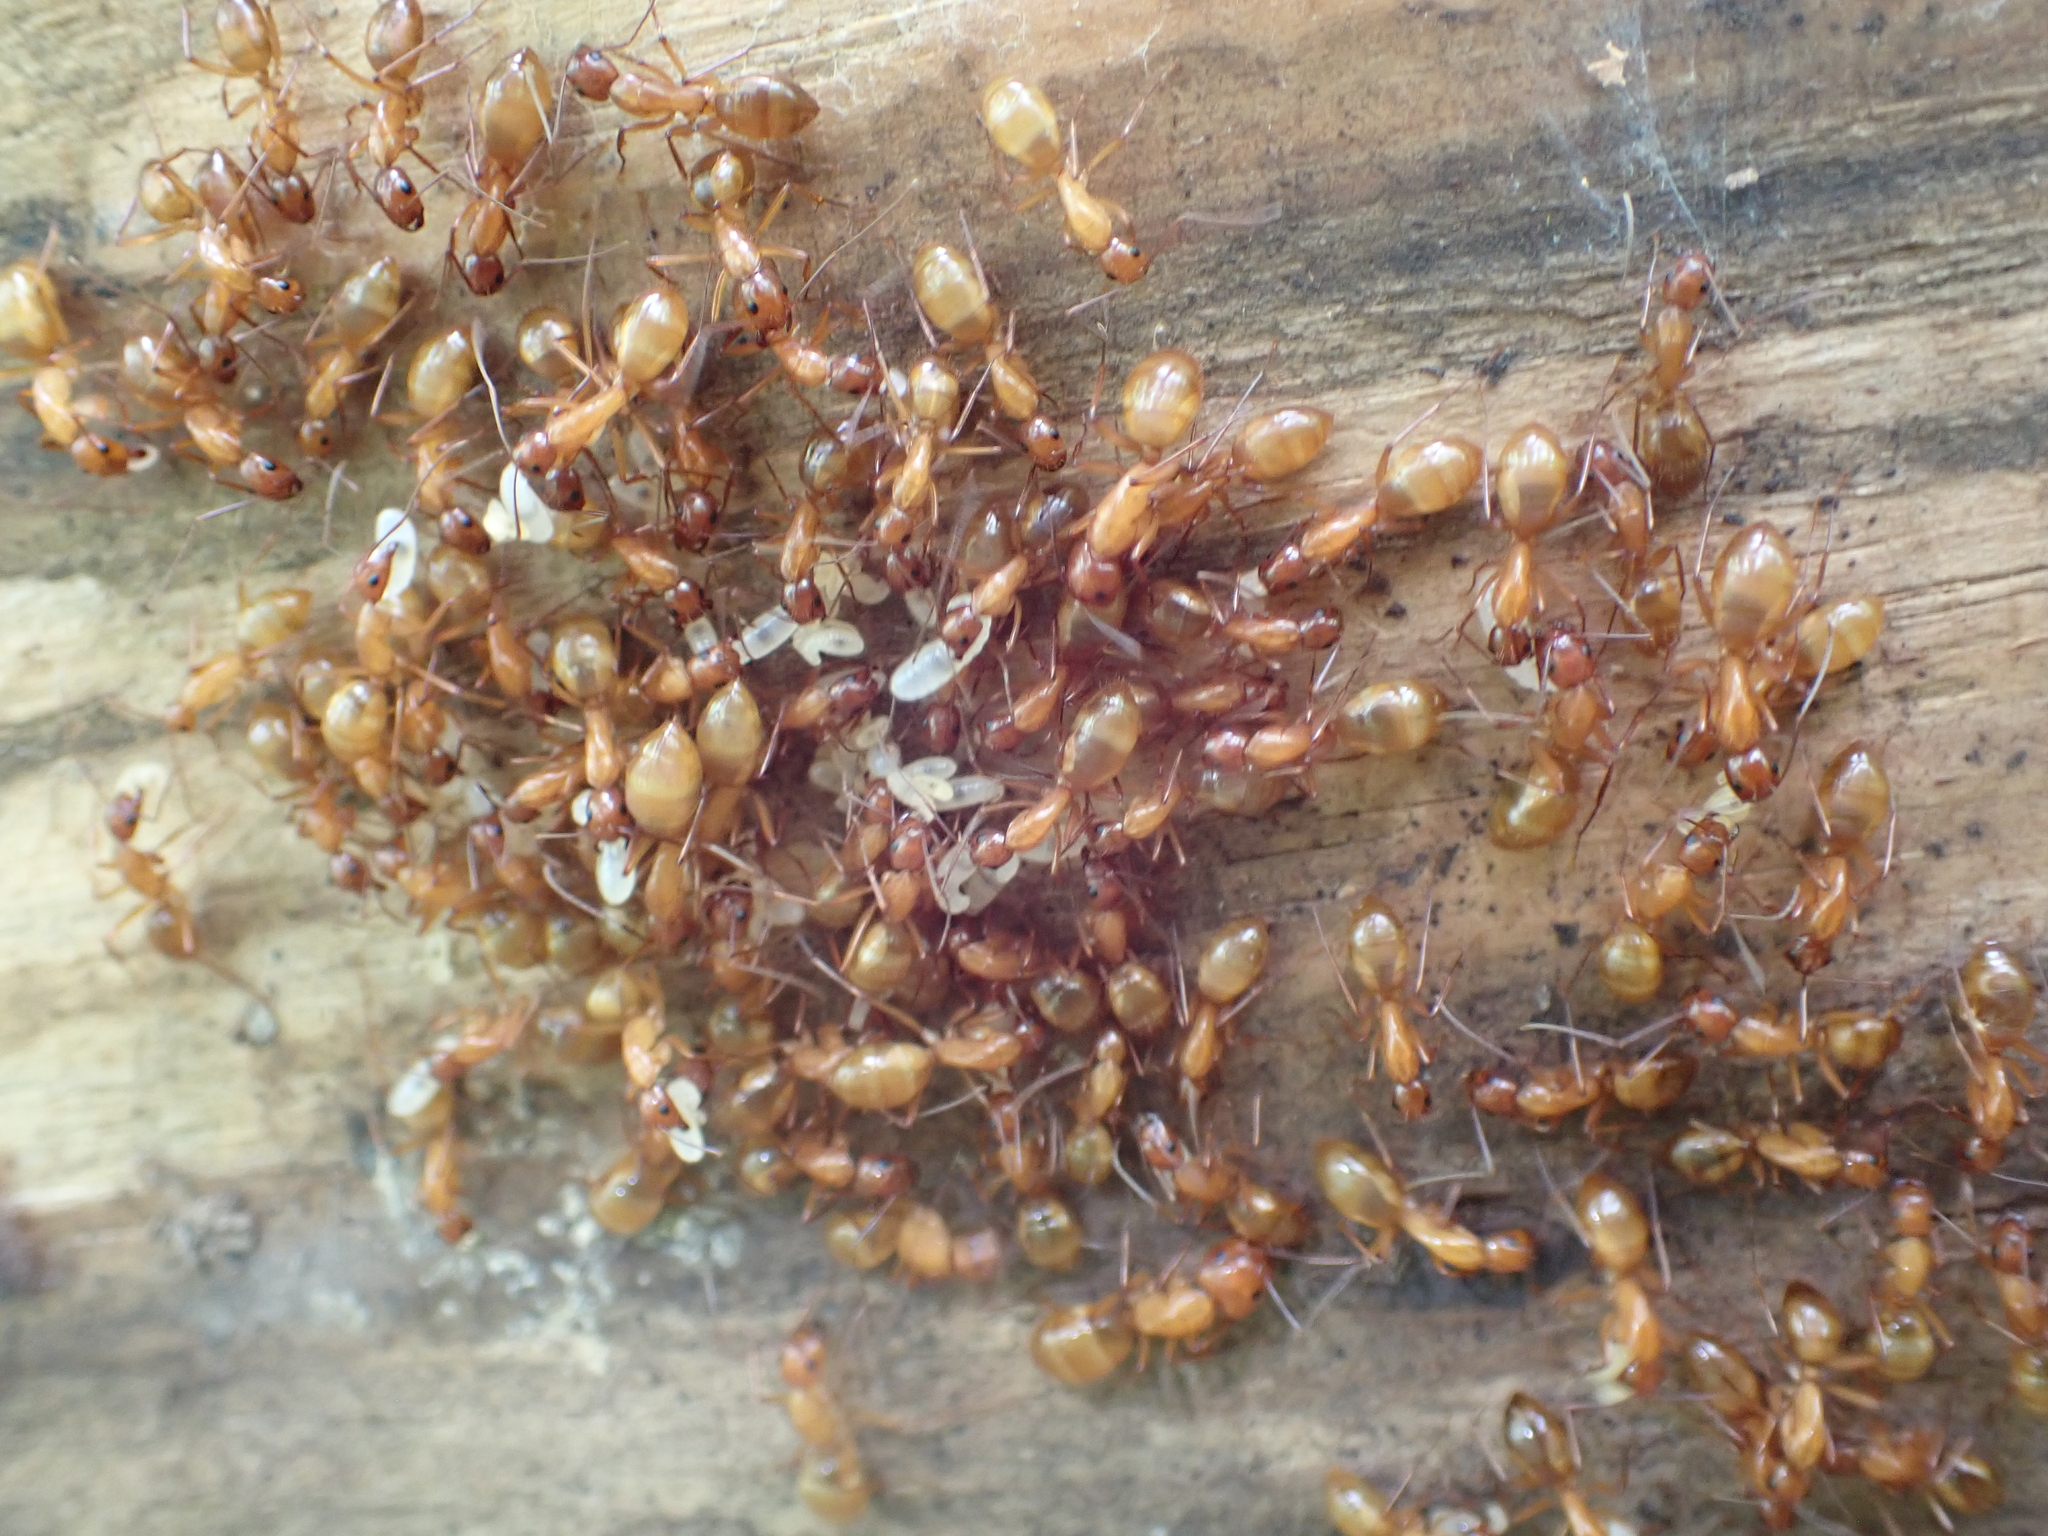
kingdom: Animalia
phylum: Arthropoda
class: Insecta
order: Hymenoptera
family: Formicidae
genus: Camponotus
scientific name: Camponotus castaneus
